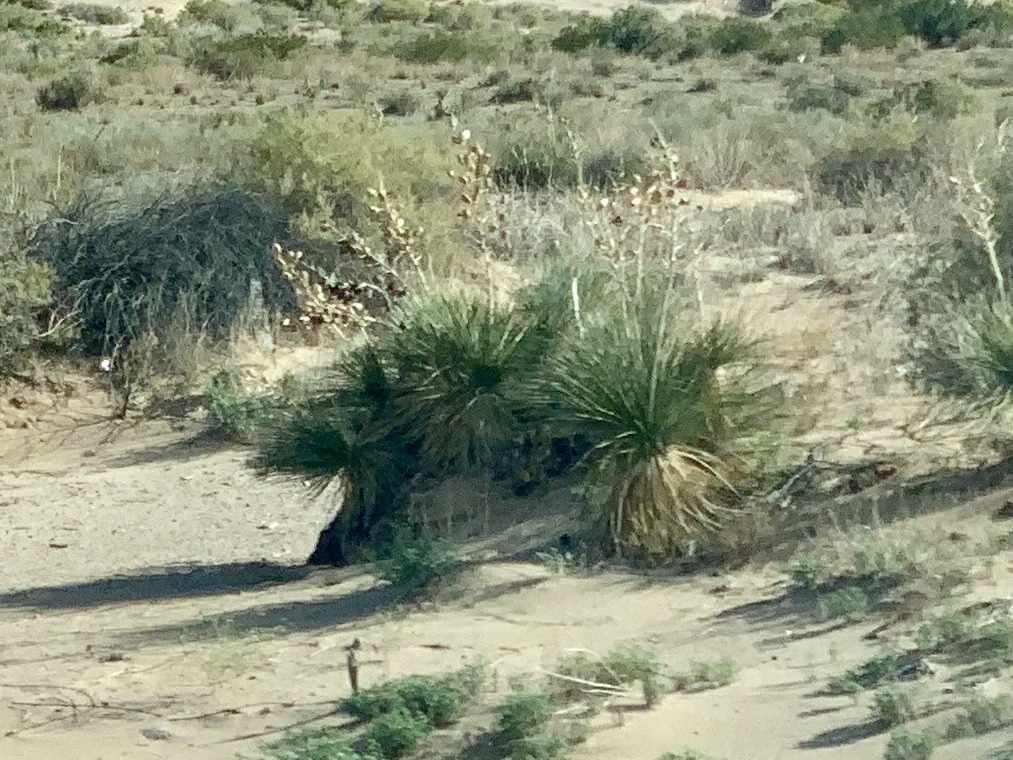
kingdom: Plantae
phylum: Tracheophyta
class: Liliopsida
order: Asparagales
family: Asparagaceae
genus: Yucca
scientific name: Yucca elata
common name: Palmella
